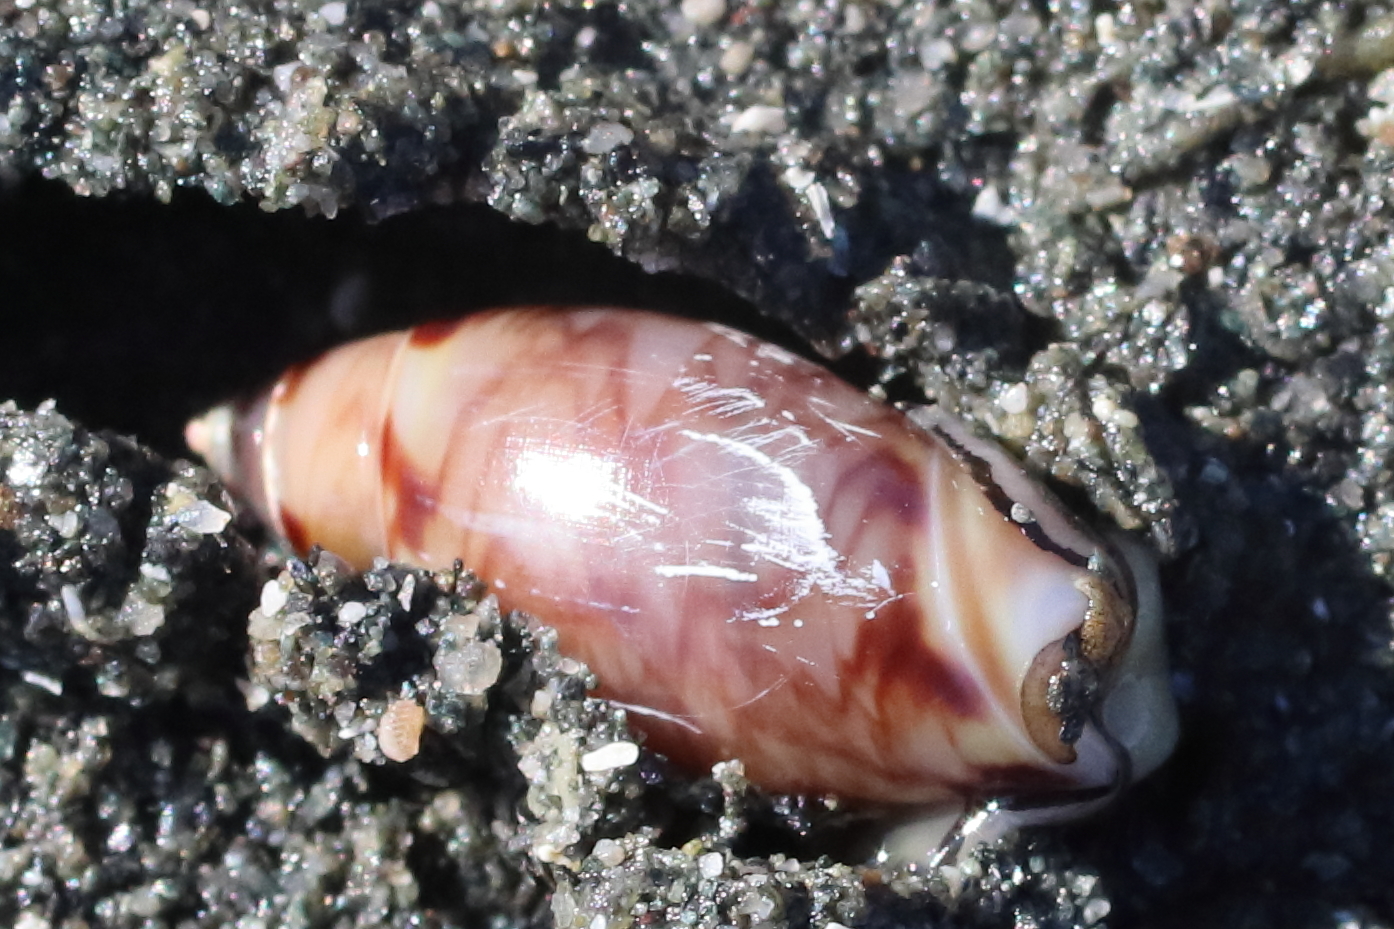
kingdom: Animalia
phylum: Mollusca
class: Gastropoda
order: Neogastropoda
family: Olividae
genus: Callianax
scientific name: Callianax alectona
